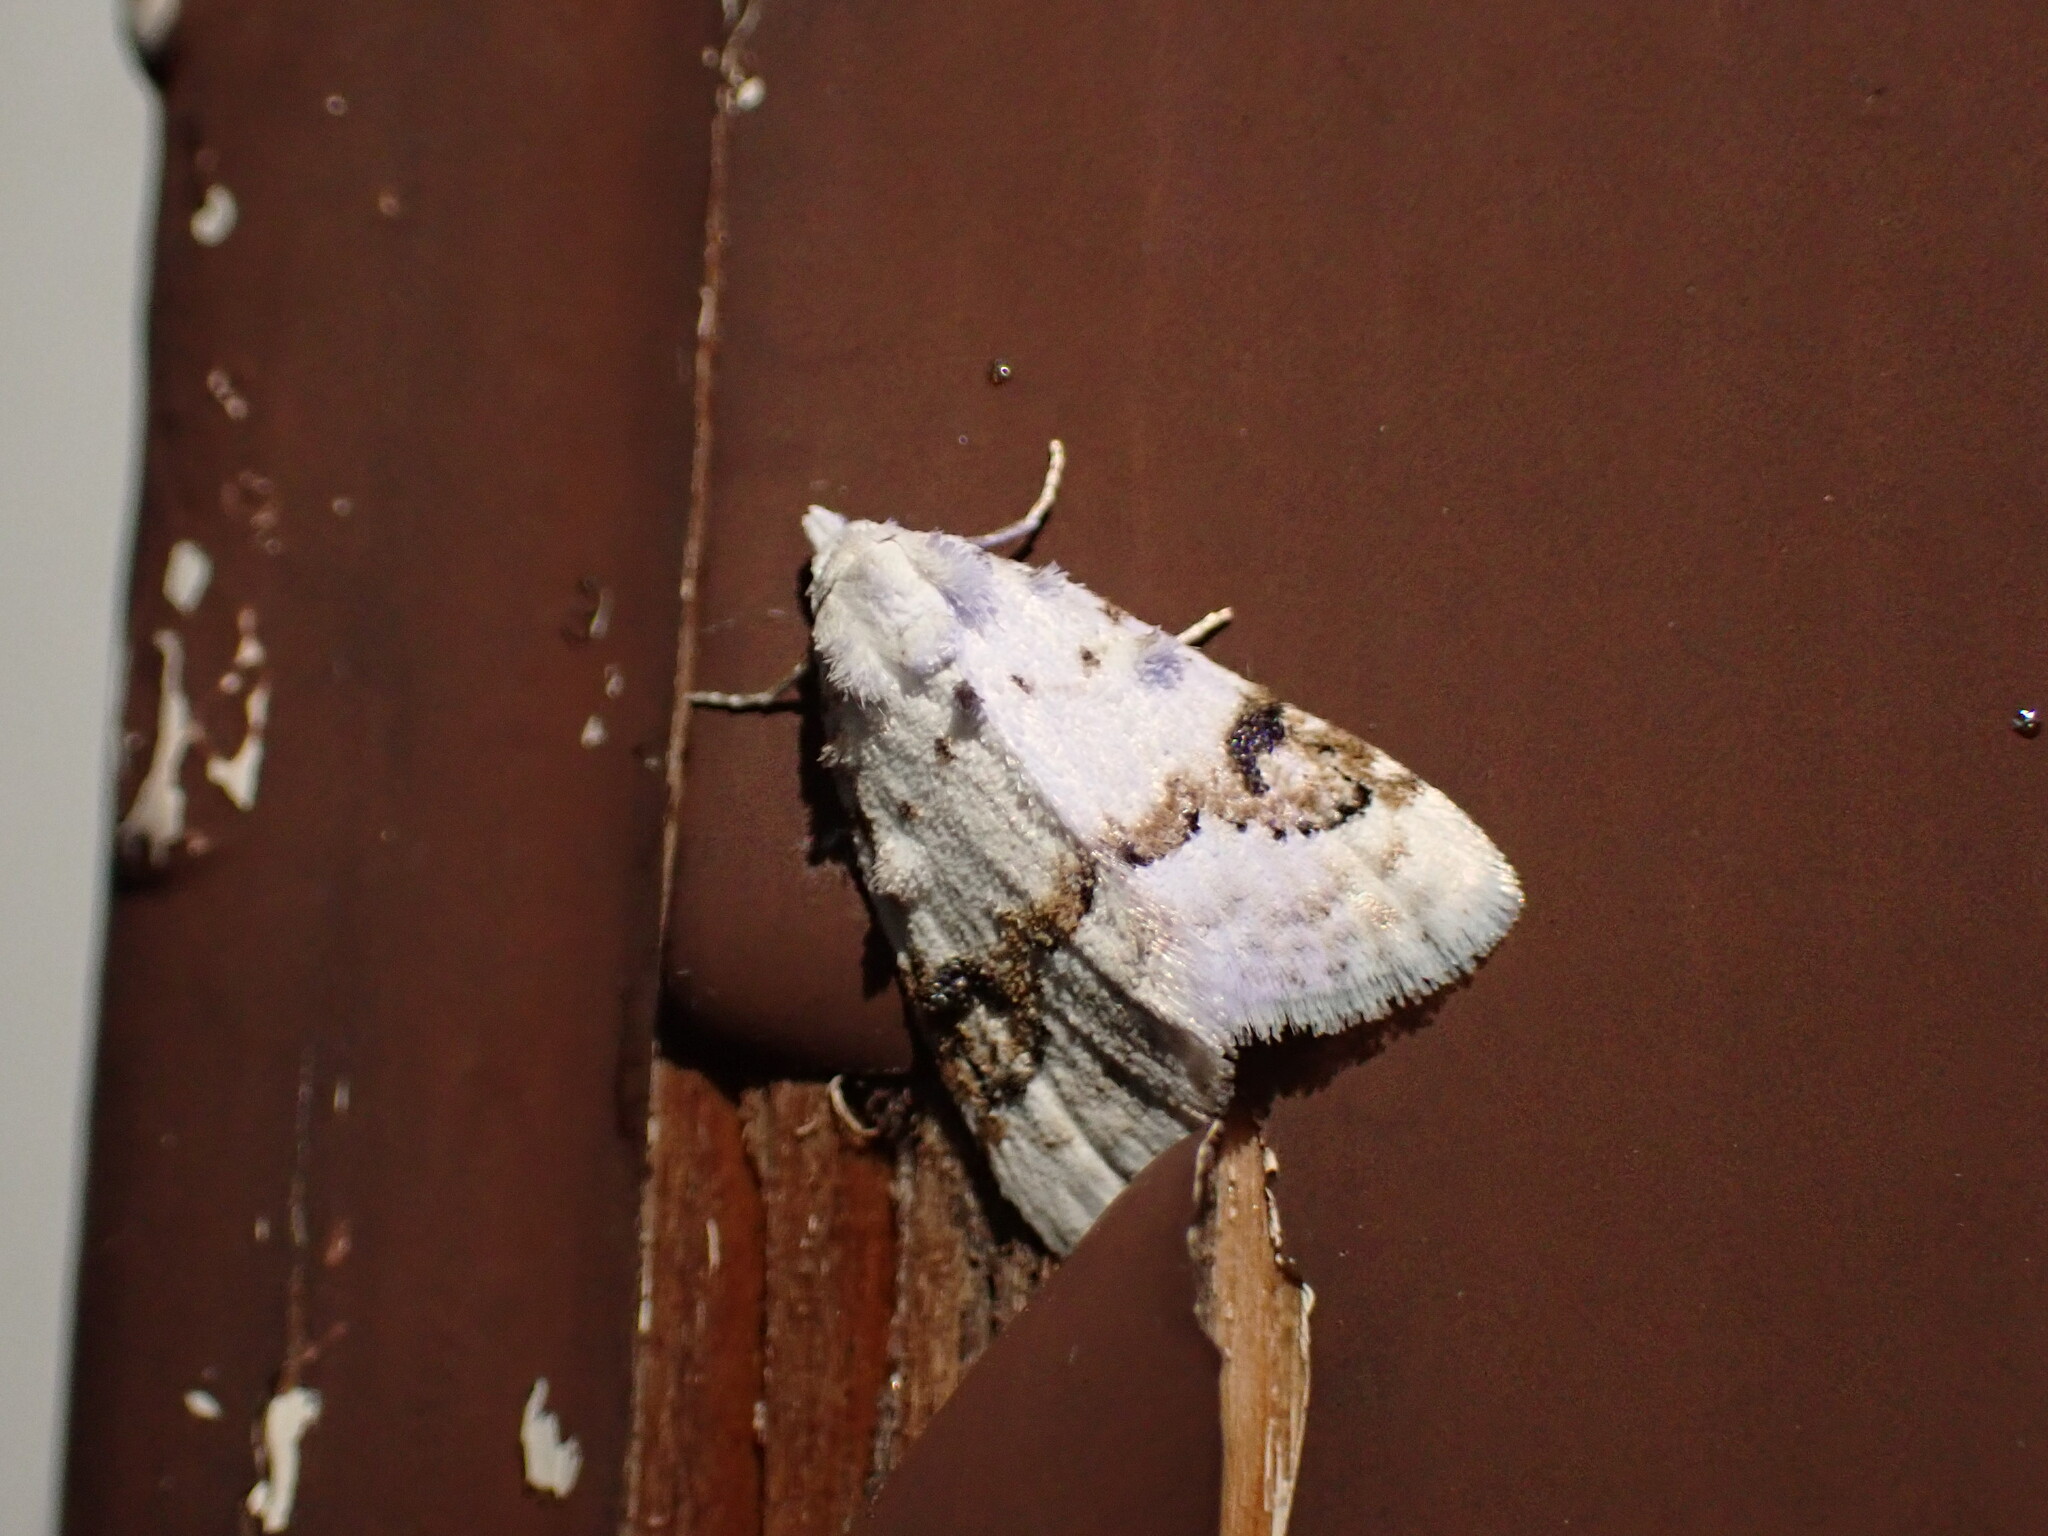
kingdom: Animalia
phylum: Arthropoda
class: Insecta
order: Lepidoptera
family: Nolidae
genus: Nola
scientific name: Nola cilicoides
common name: Blurry-patched nola moth
